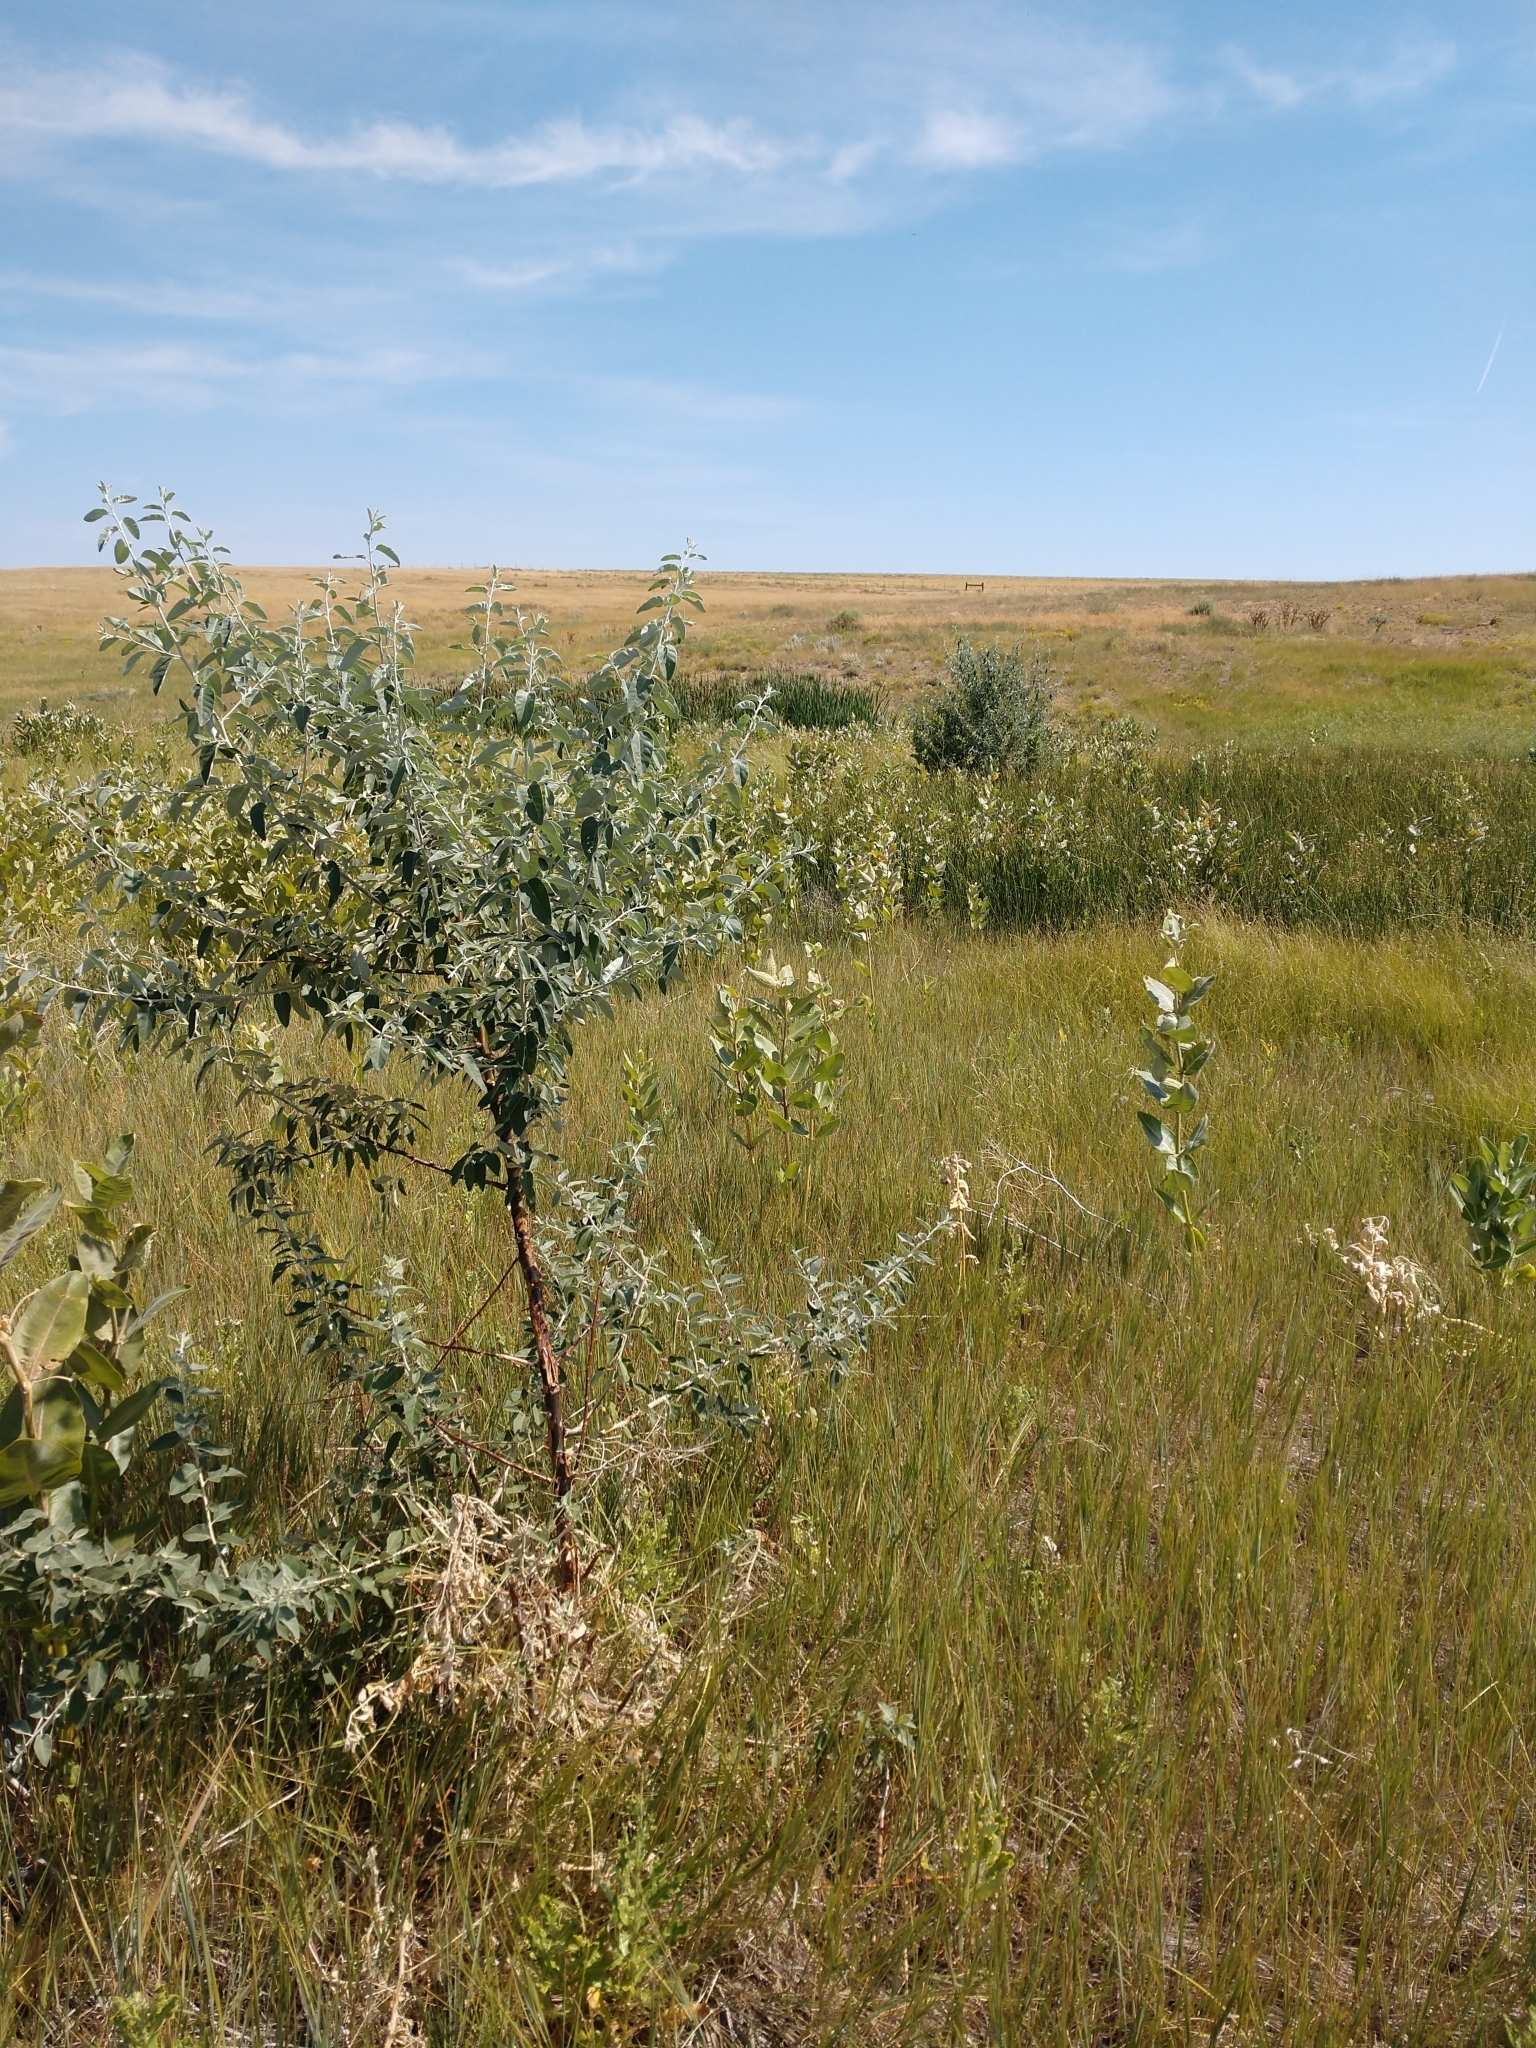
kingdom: Plantae
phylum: Tracheophyta
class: Magnoliopsida
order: Rosales
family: Elaeagnaceae
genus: Elaeagnus
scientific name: Elaeagnus angustifolia
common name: Russian olive
